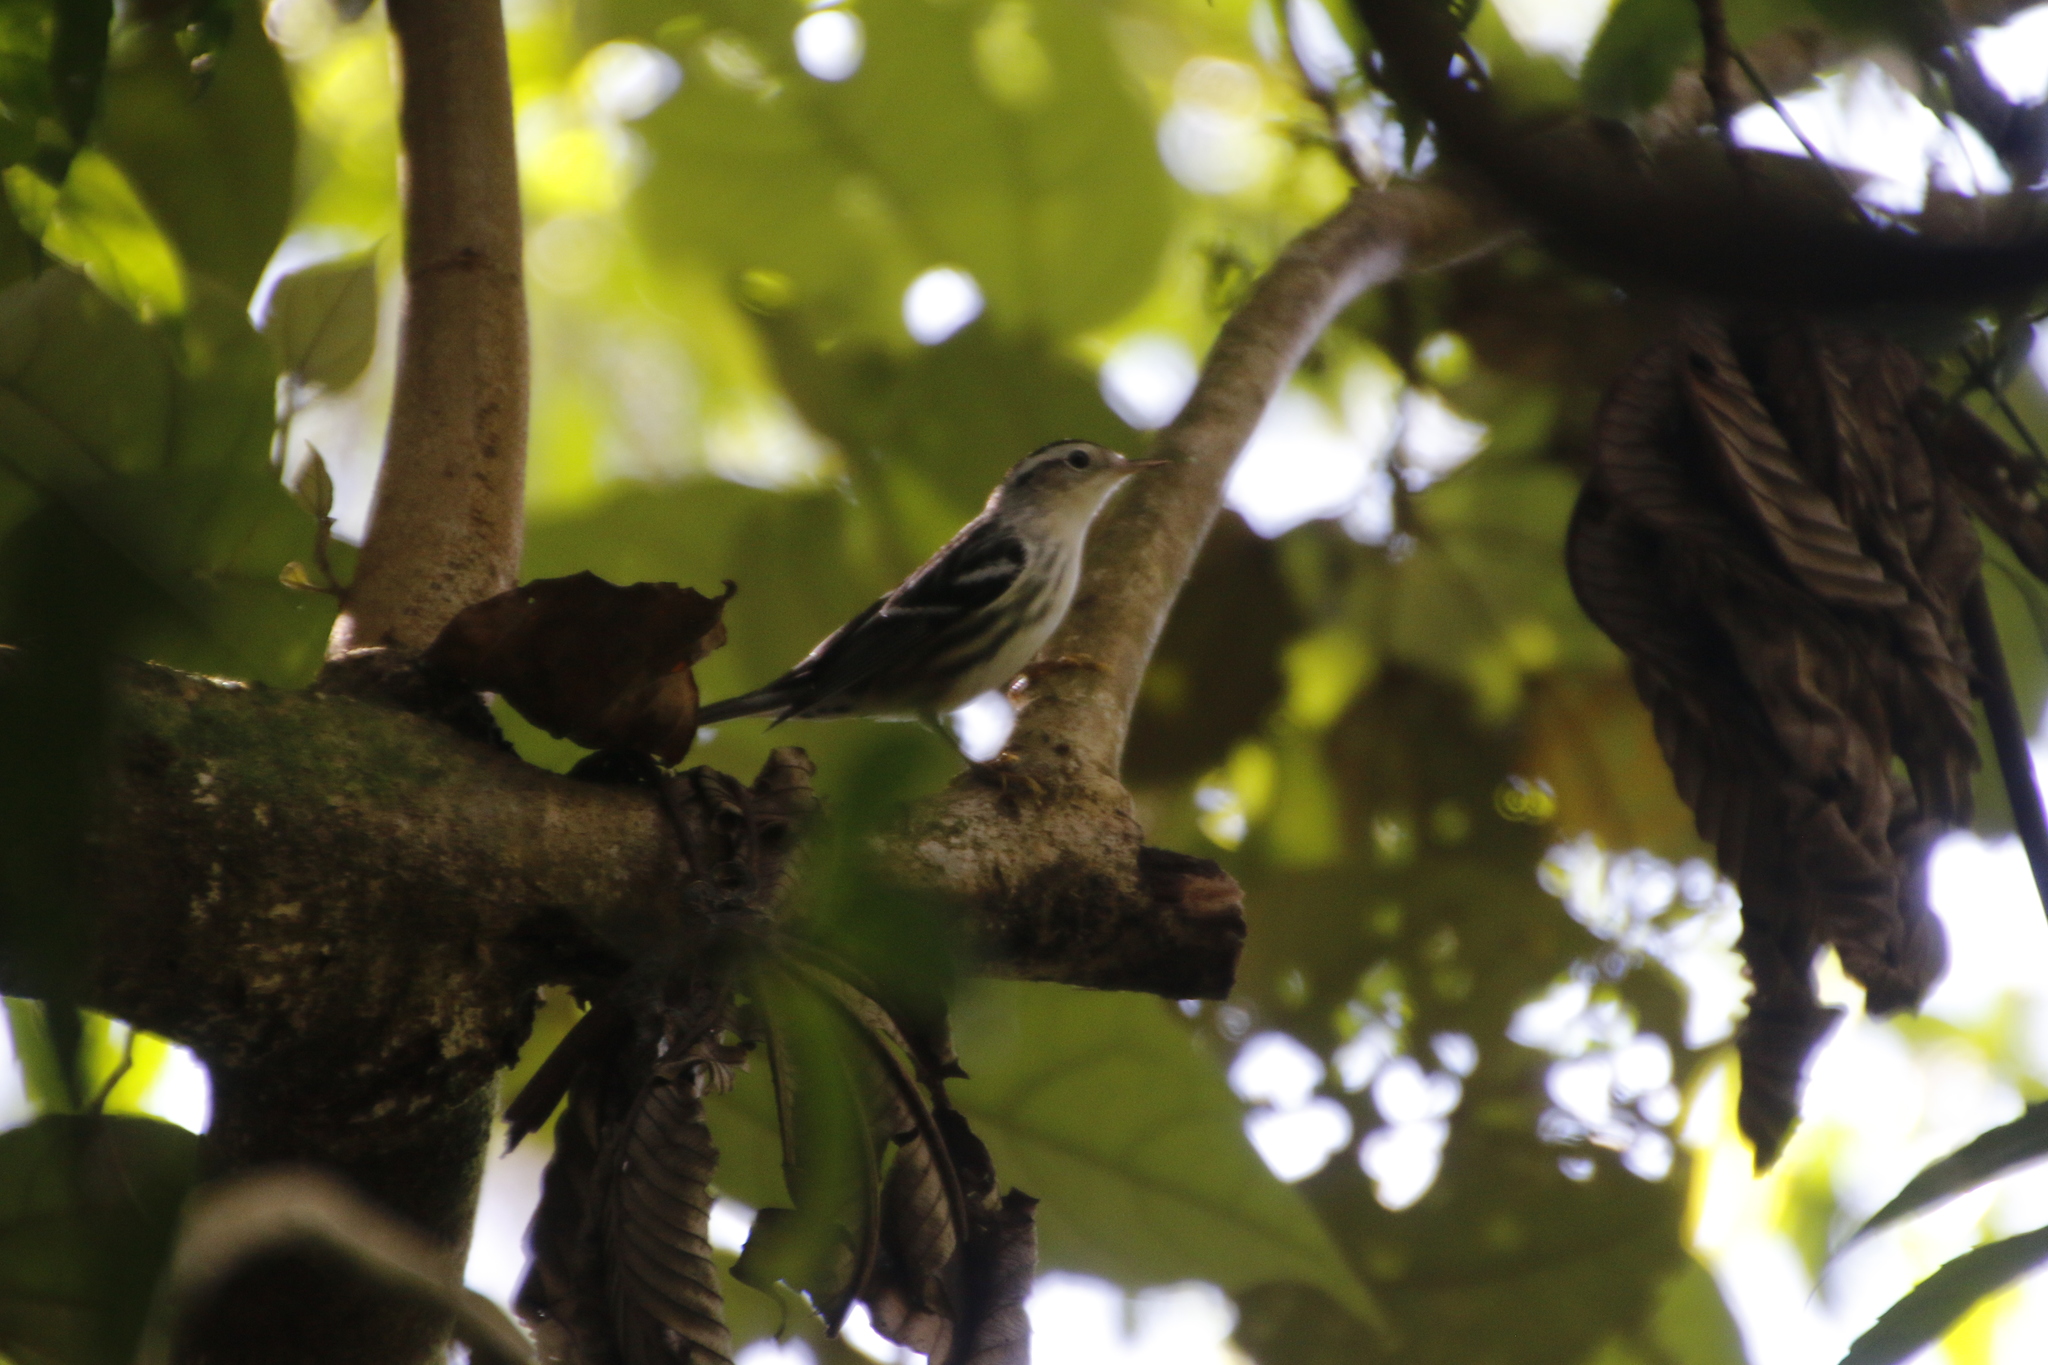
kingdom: Animalia
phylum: Chordata
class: Aves
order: Passeriformes
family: Parulidae
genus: Mniotilta
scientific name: Mniotilta varia
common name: Black-and-white warbler
